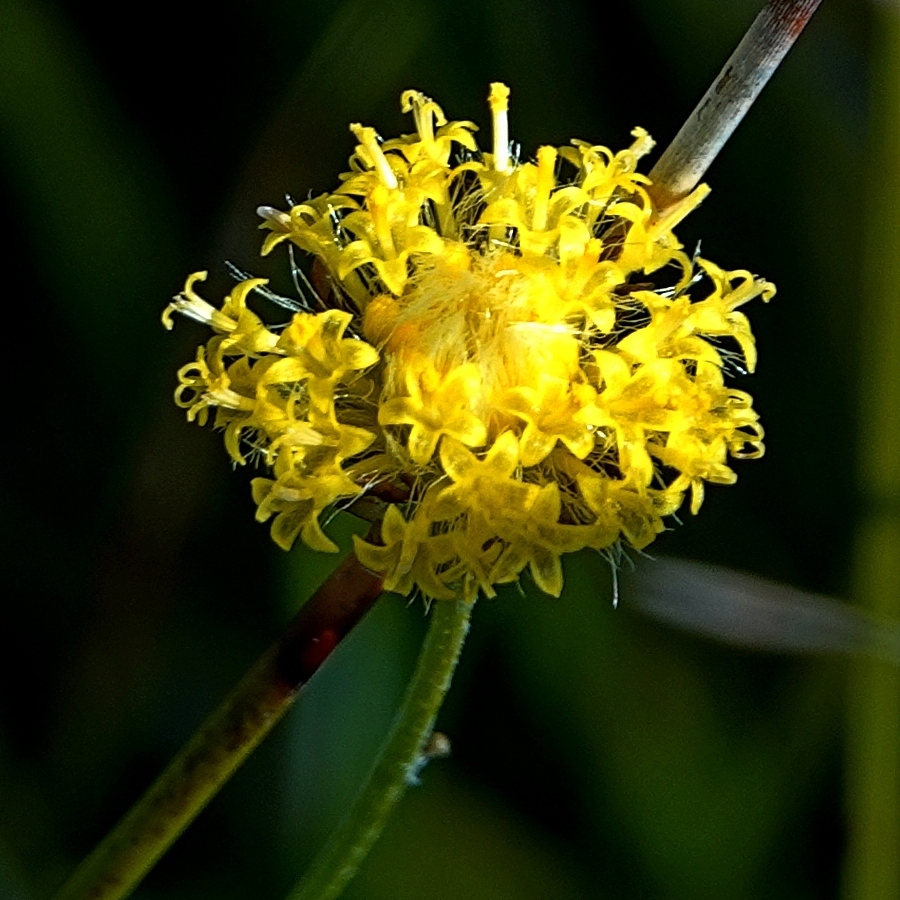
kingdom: Plantae
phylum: Tracheophyta
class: Magnoliopsida
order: Asterales
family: Asteraceae
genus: Leptorhynchos
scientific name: Leptorhynchos nitidulus
